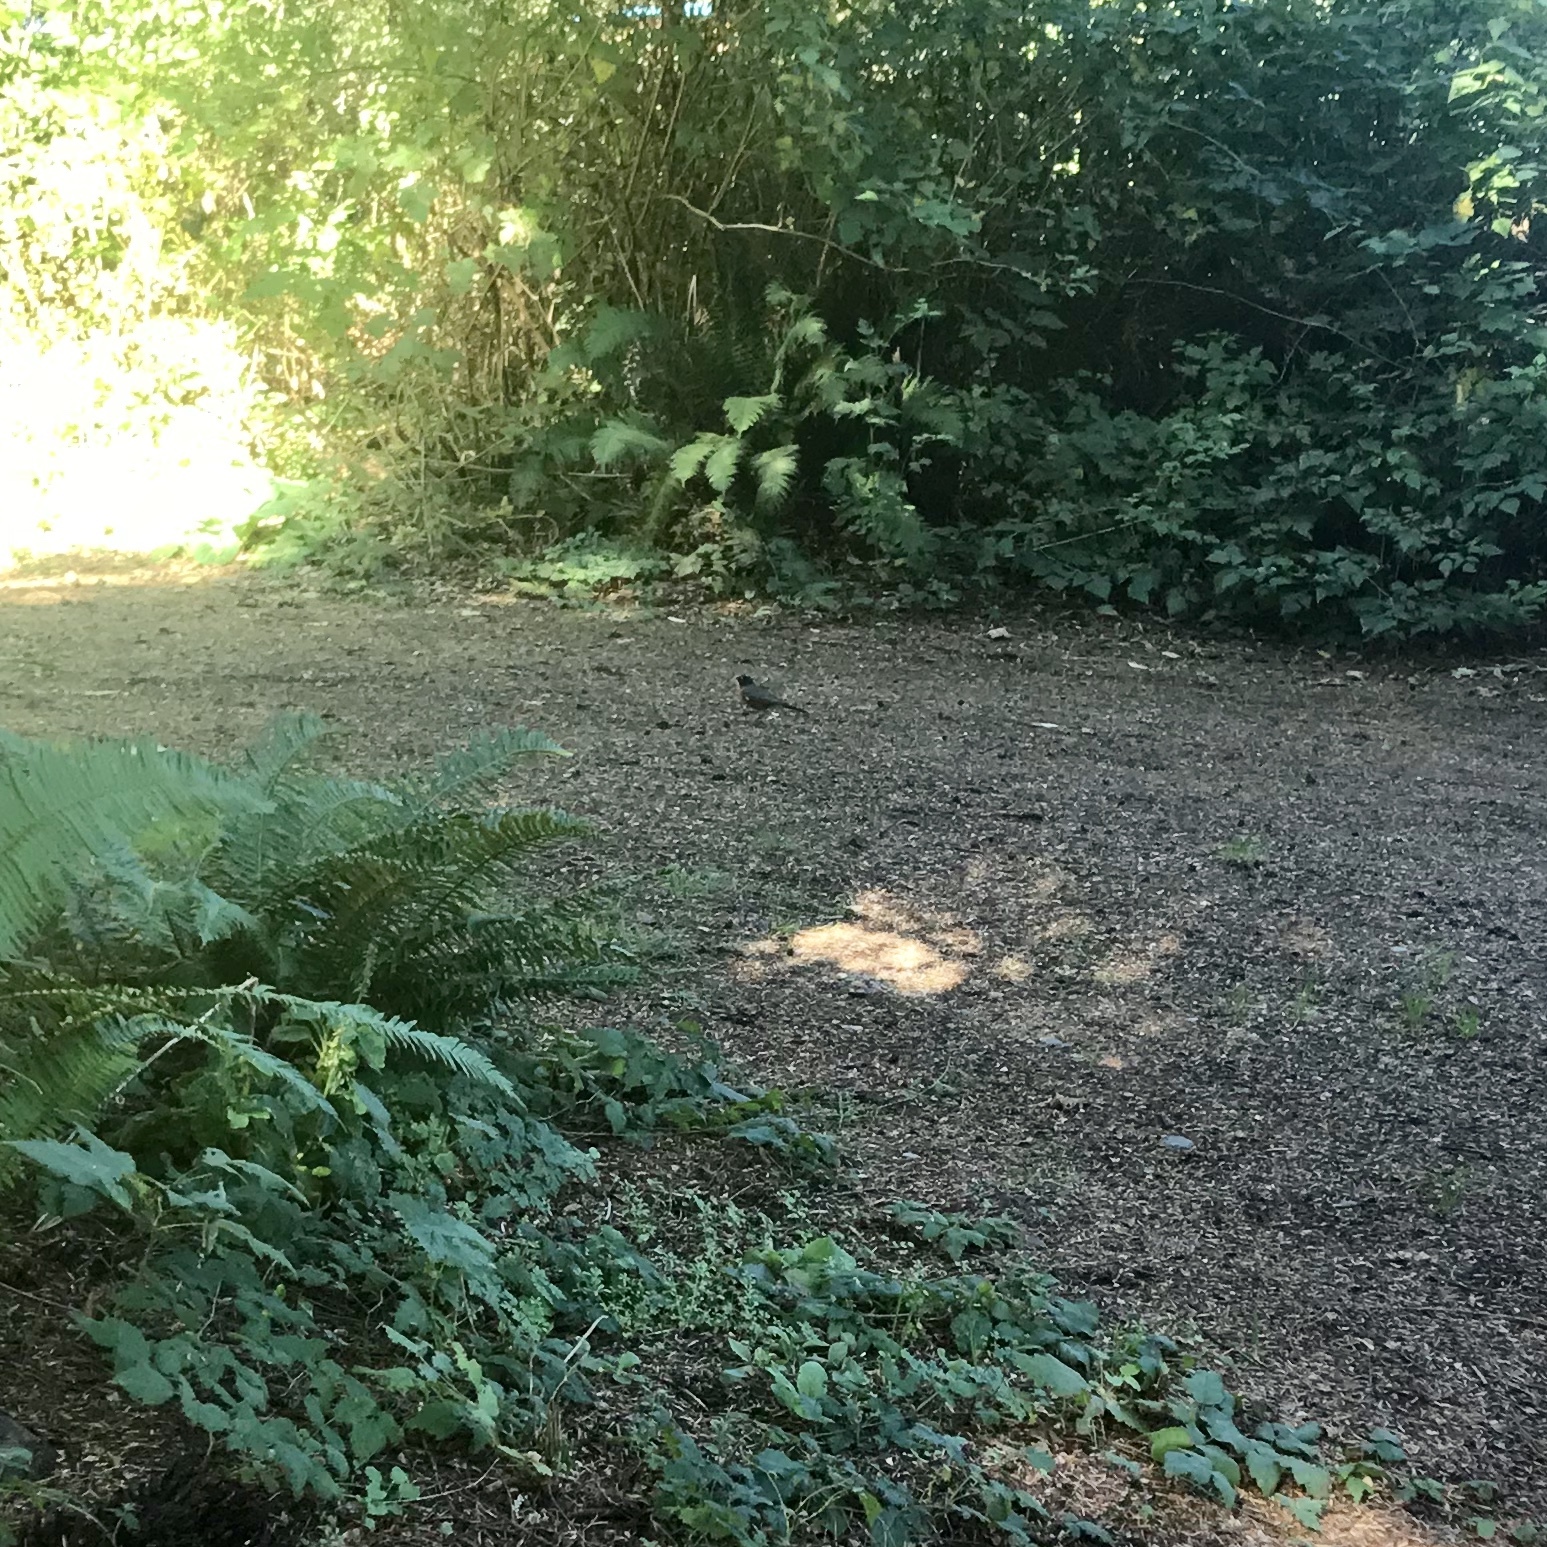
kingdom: Animalia
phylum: Chordata
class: Aves
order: Passeriformes
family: Turdidae
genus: Turdus
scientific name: Turdus migratorius
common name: American robin
